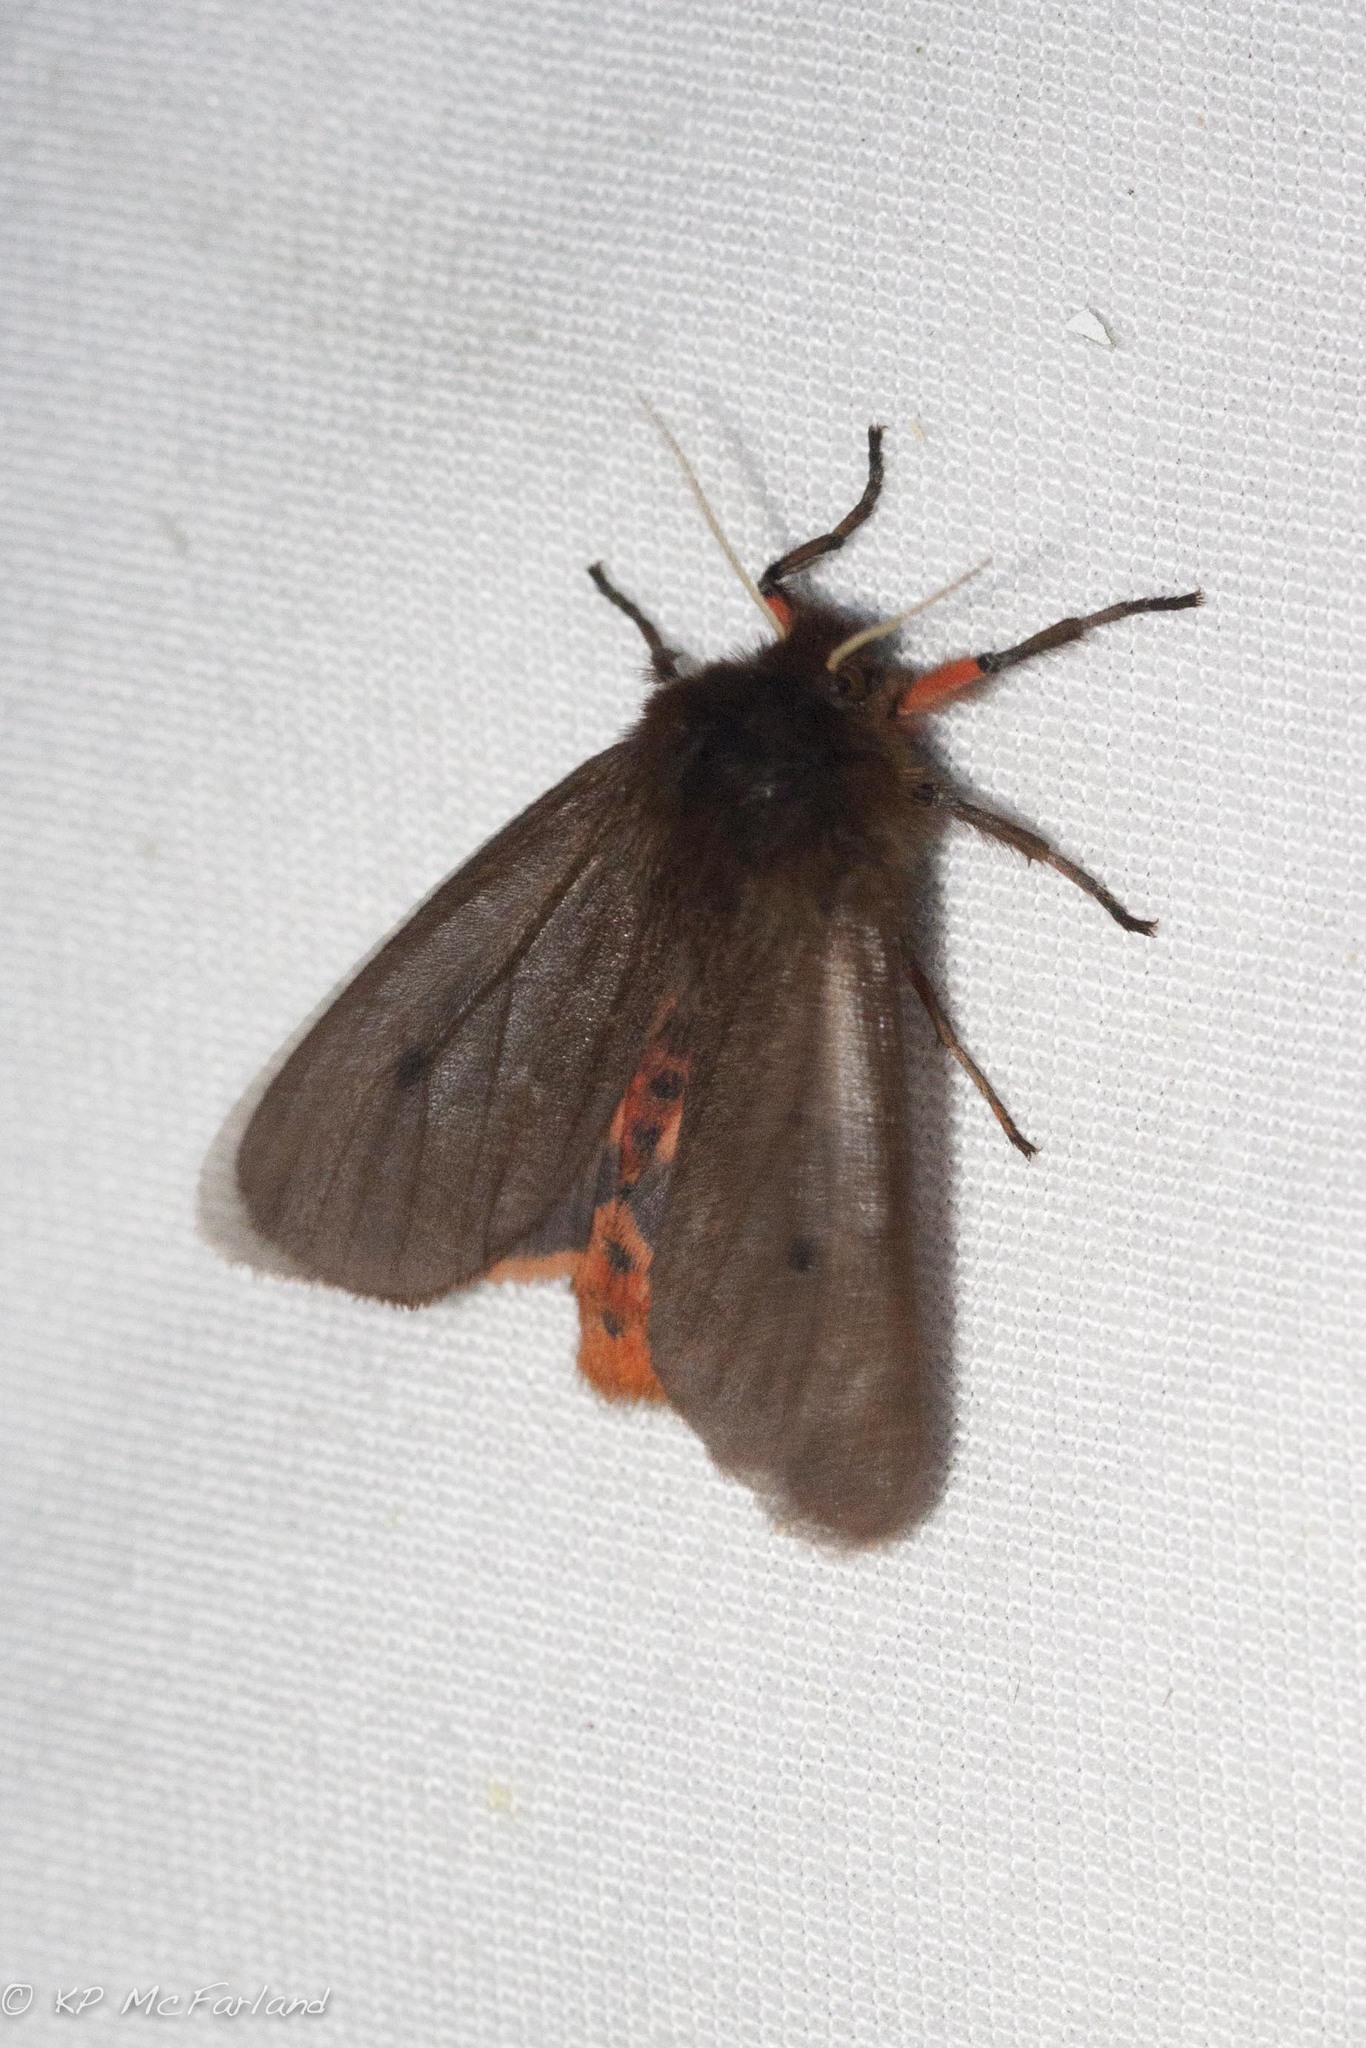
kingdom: Animalia
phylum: Arthropoda
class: Insecta
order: Lepidoptera
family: Erebidae
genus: Phragmatobia
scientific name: Phragmatobia fuliginosa
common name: Ruby tiger
